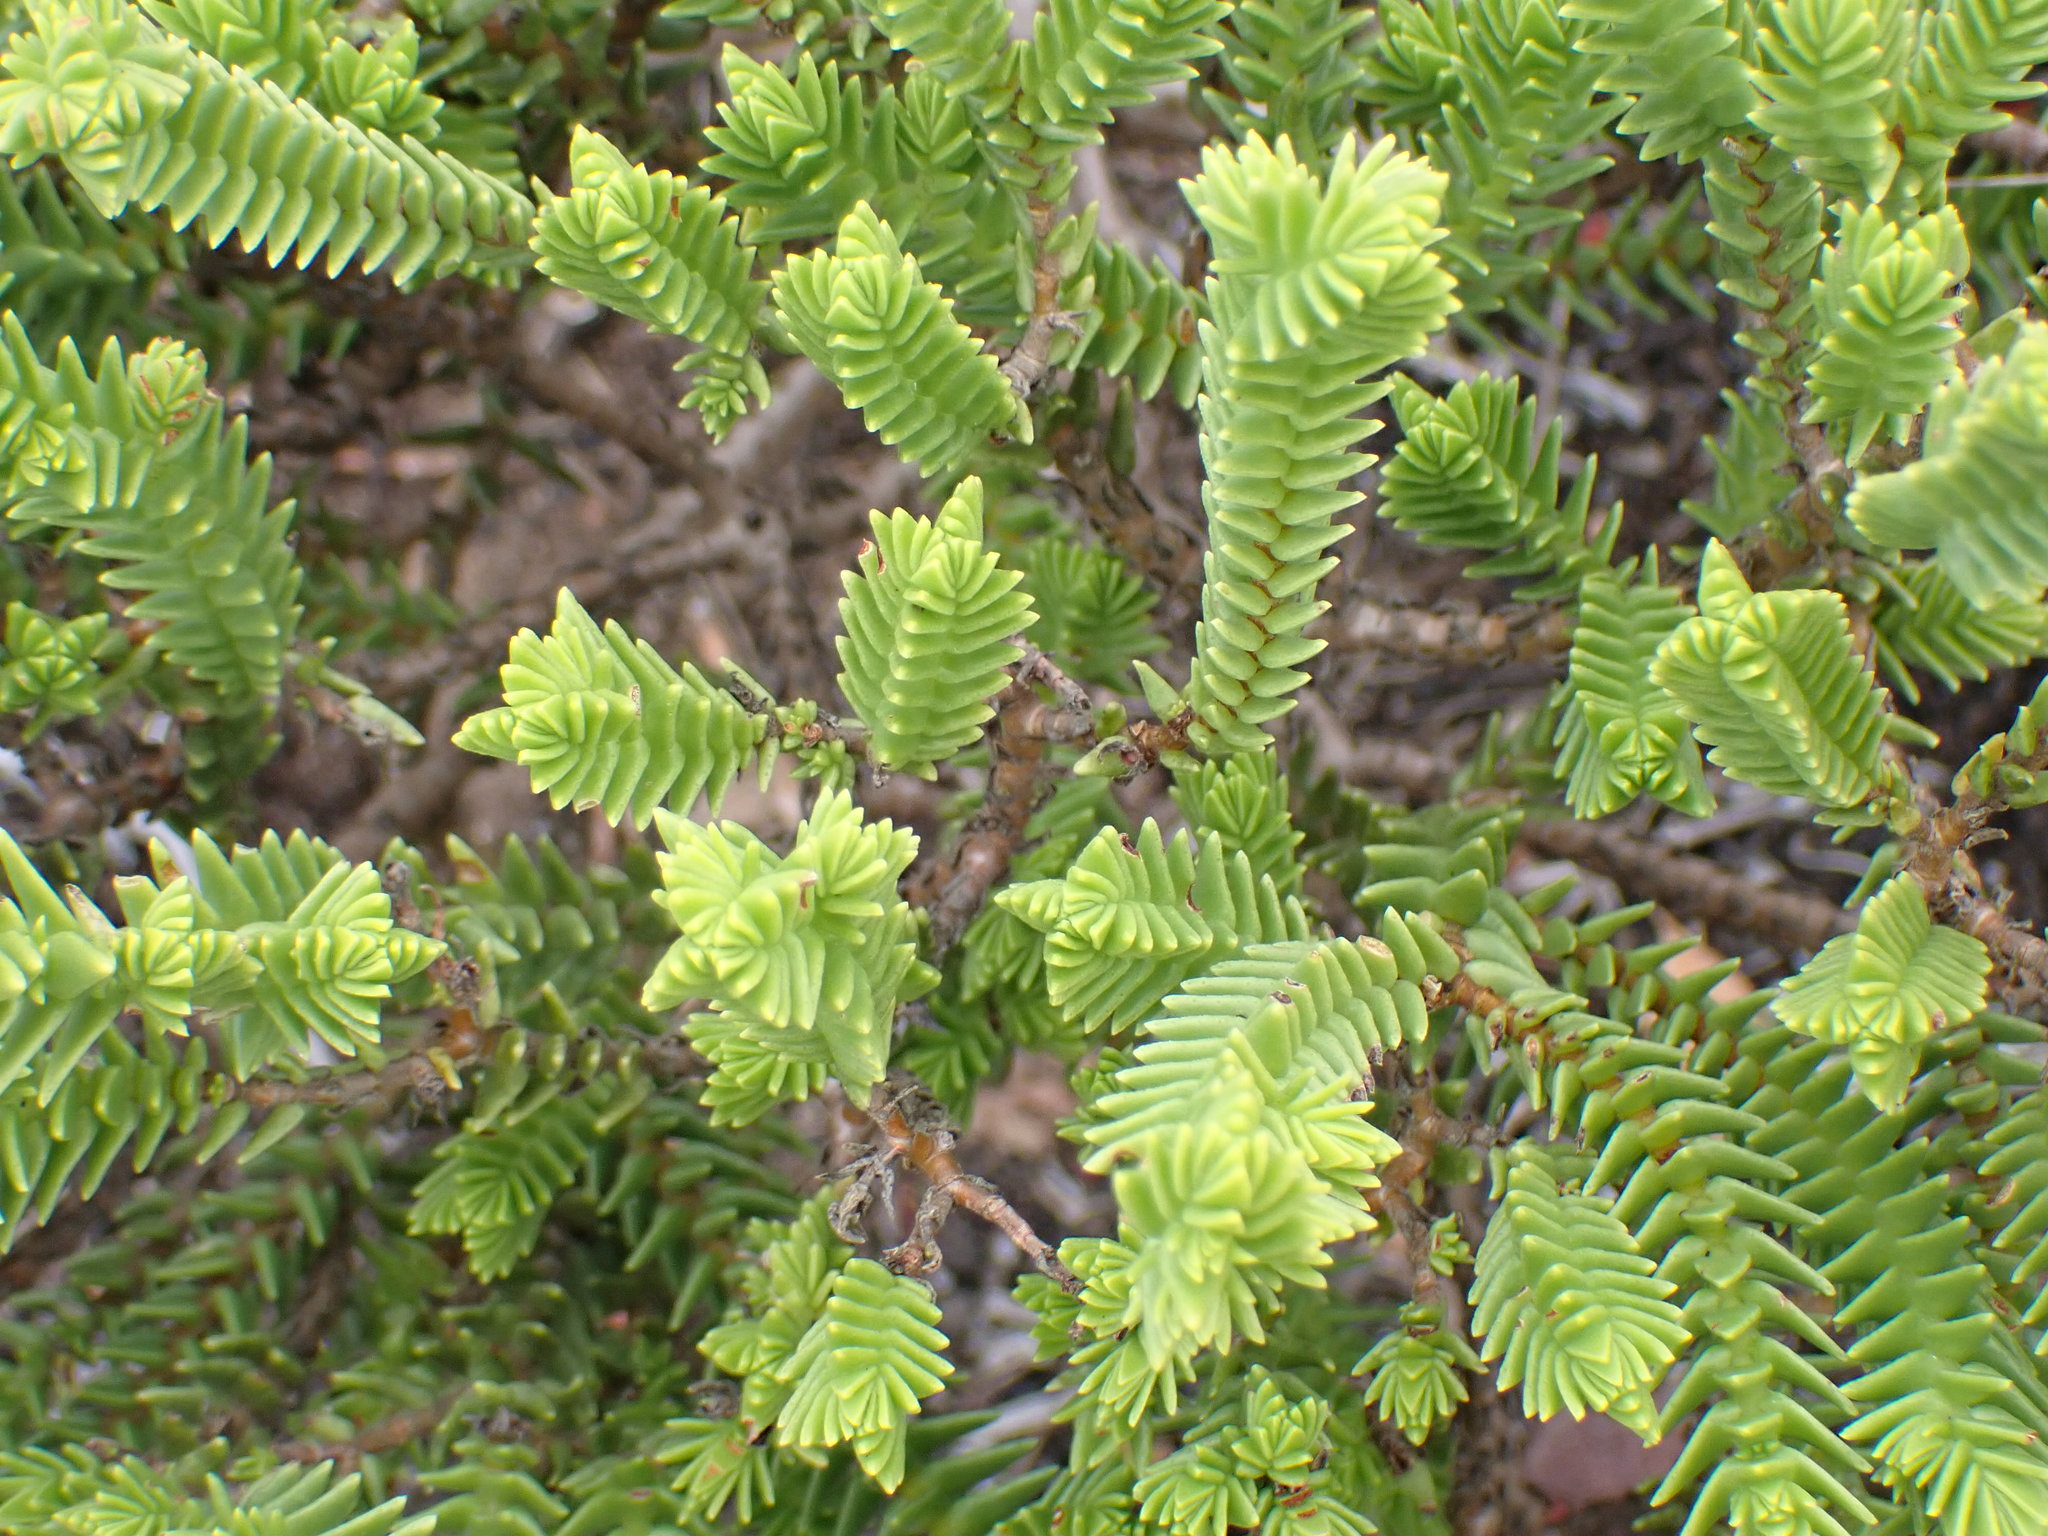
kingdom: Plantae
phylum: Tracheophyta
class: Magnoliopsida
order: Saxifragales
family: Crassulaceae
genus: Crassula
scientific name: Crassula ericoides
